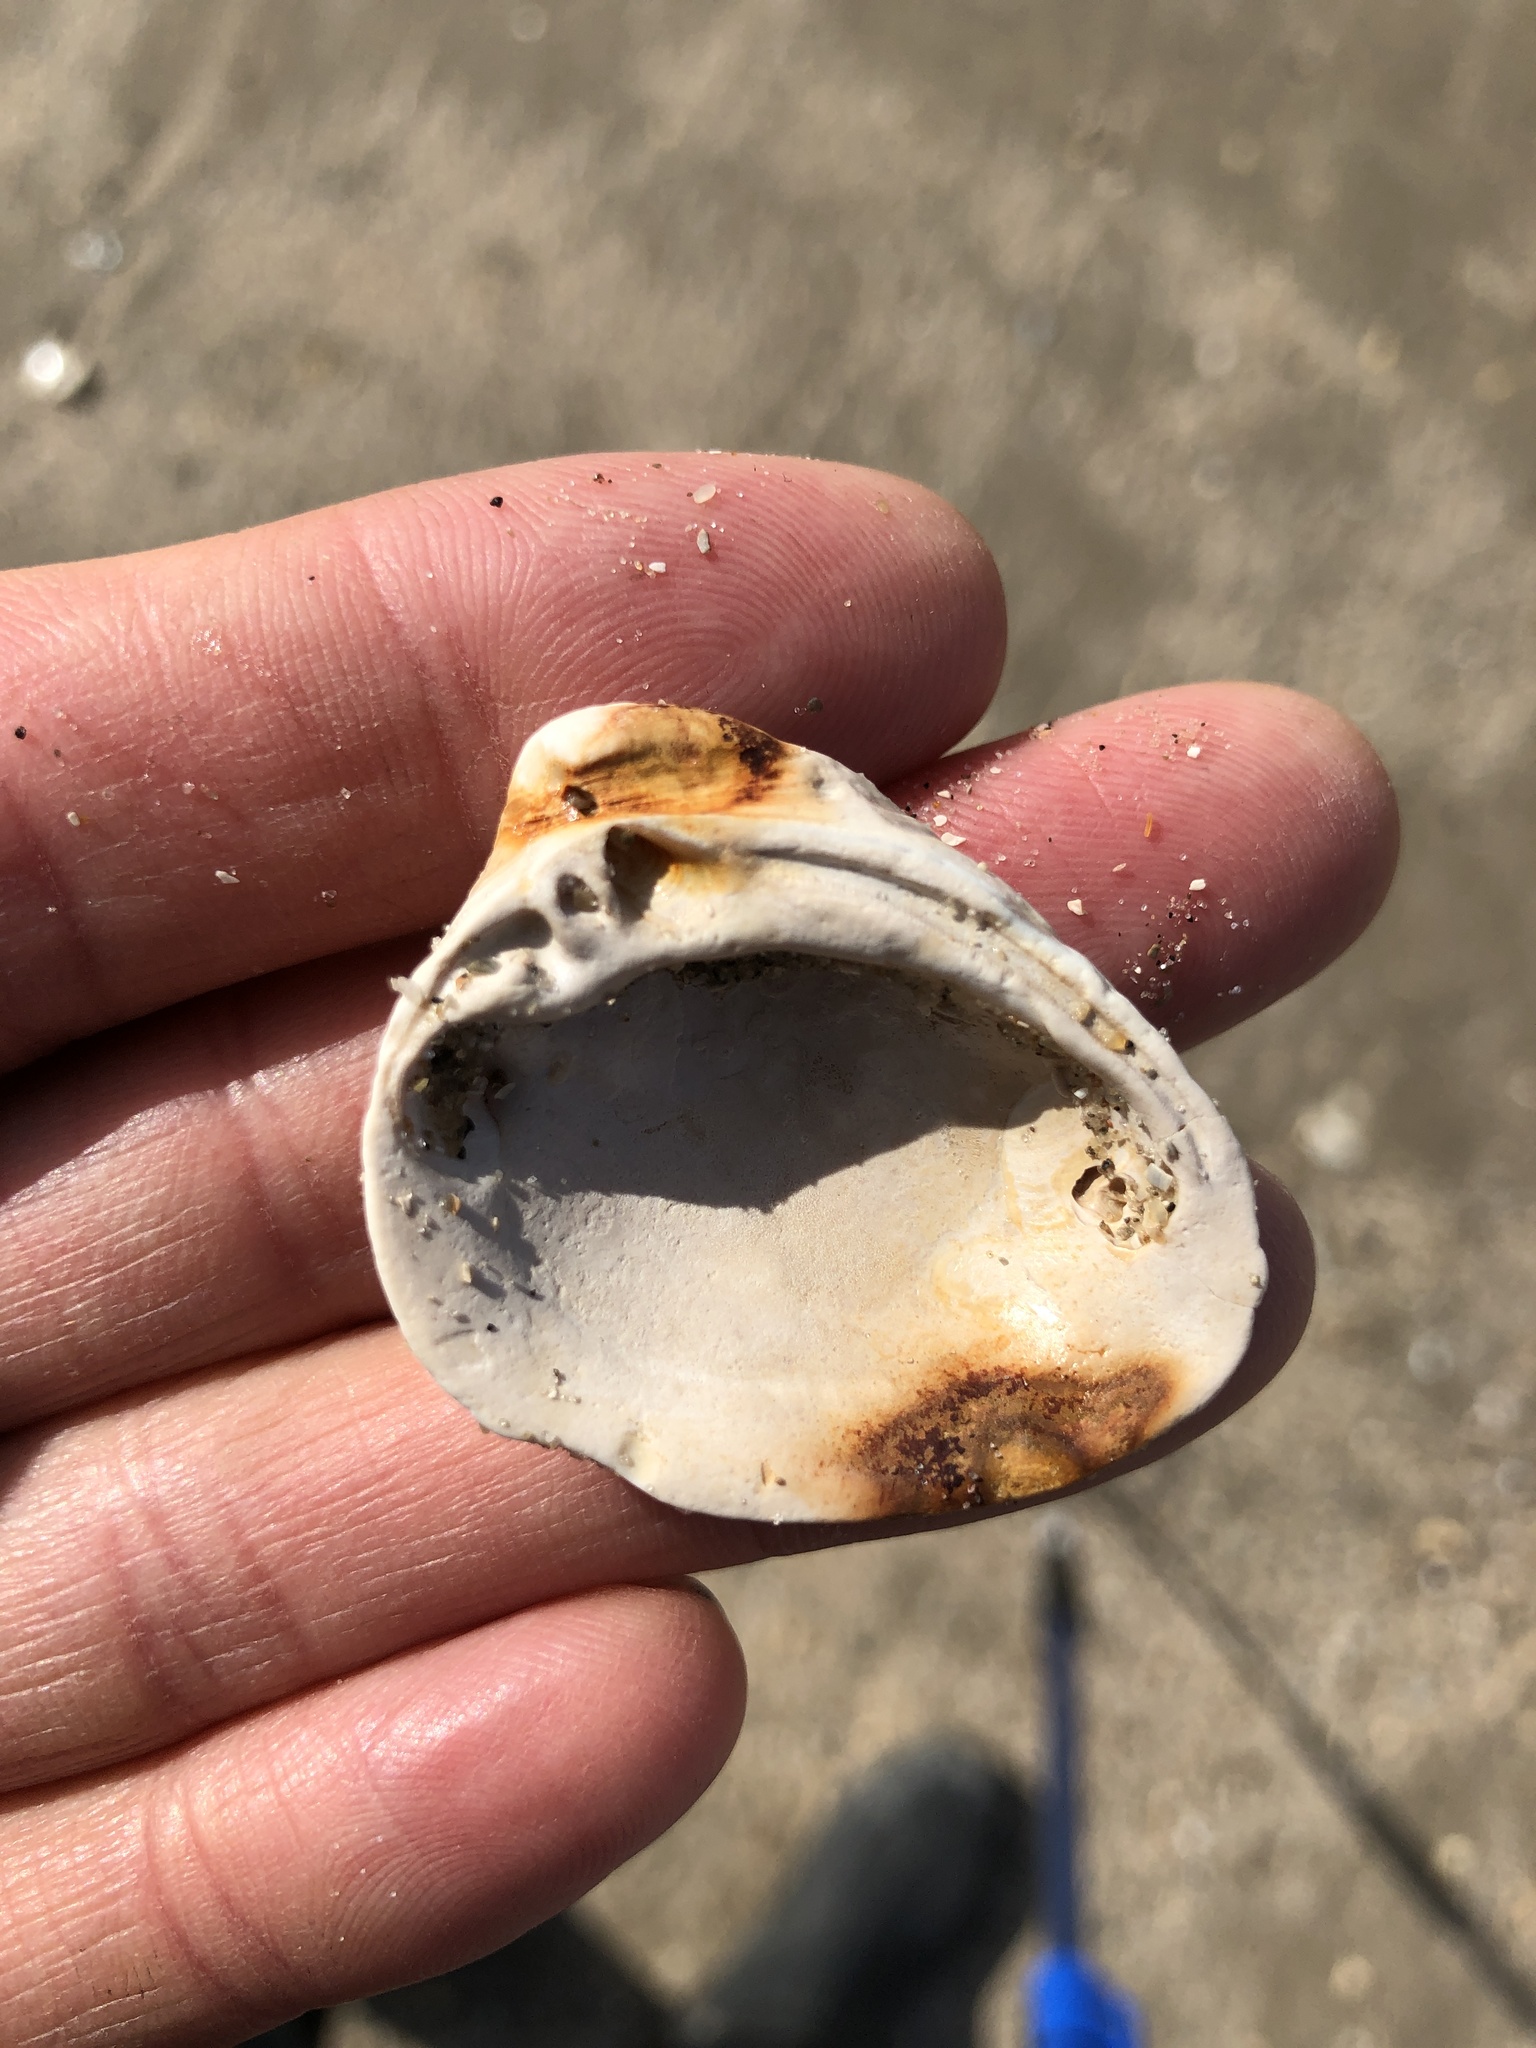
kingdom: Animalia
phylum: Mollusca
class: Bivalvia
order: Venerida
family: Mactridae
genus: Rangia
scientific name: Rangia cuneata
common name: Atlantic rangia
